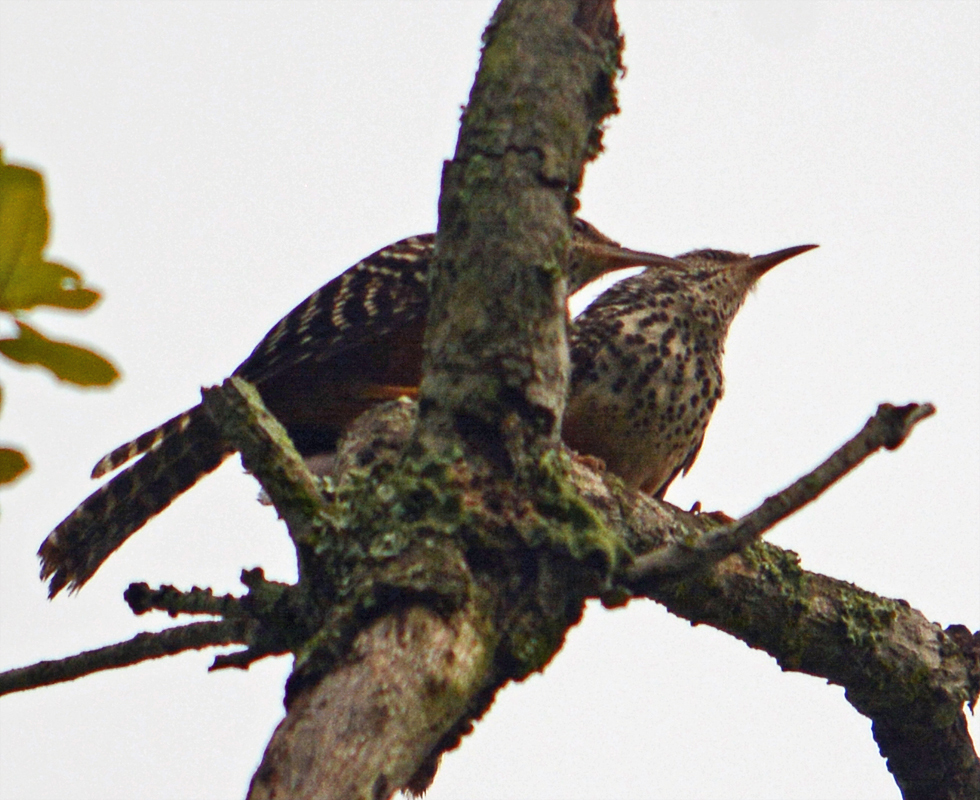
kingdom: Animalia
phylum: Chordata
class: Aves
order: Passeriformes
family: Troglodytidae
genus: Campylorhynchus
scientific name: Campylorhynchus zonatus
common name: Band-backed wren
